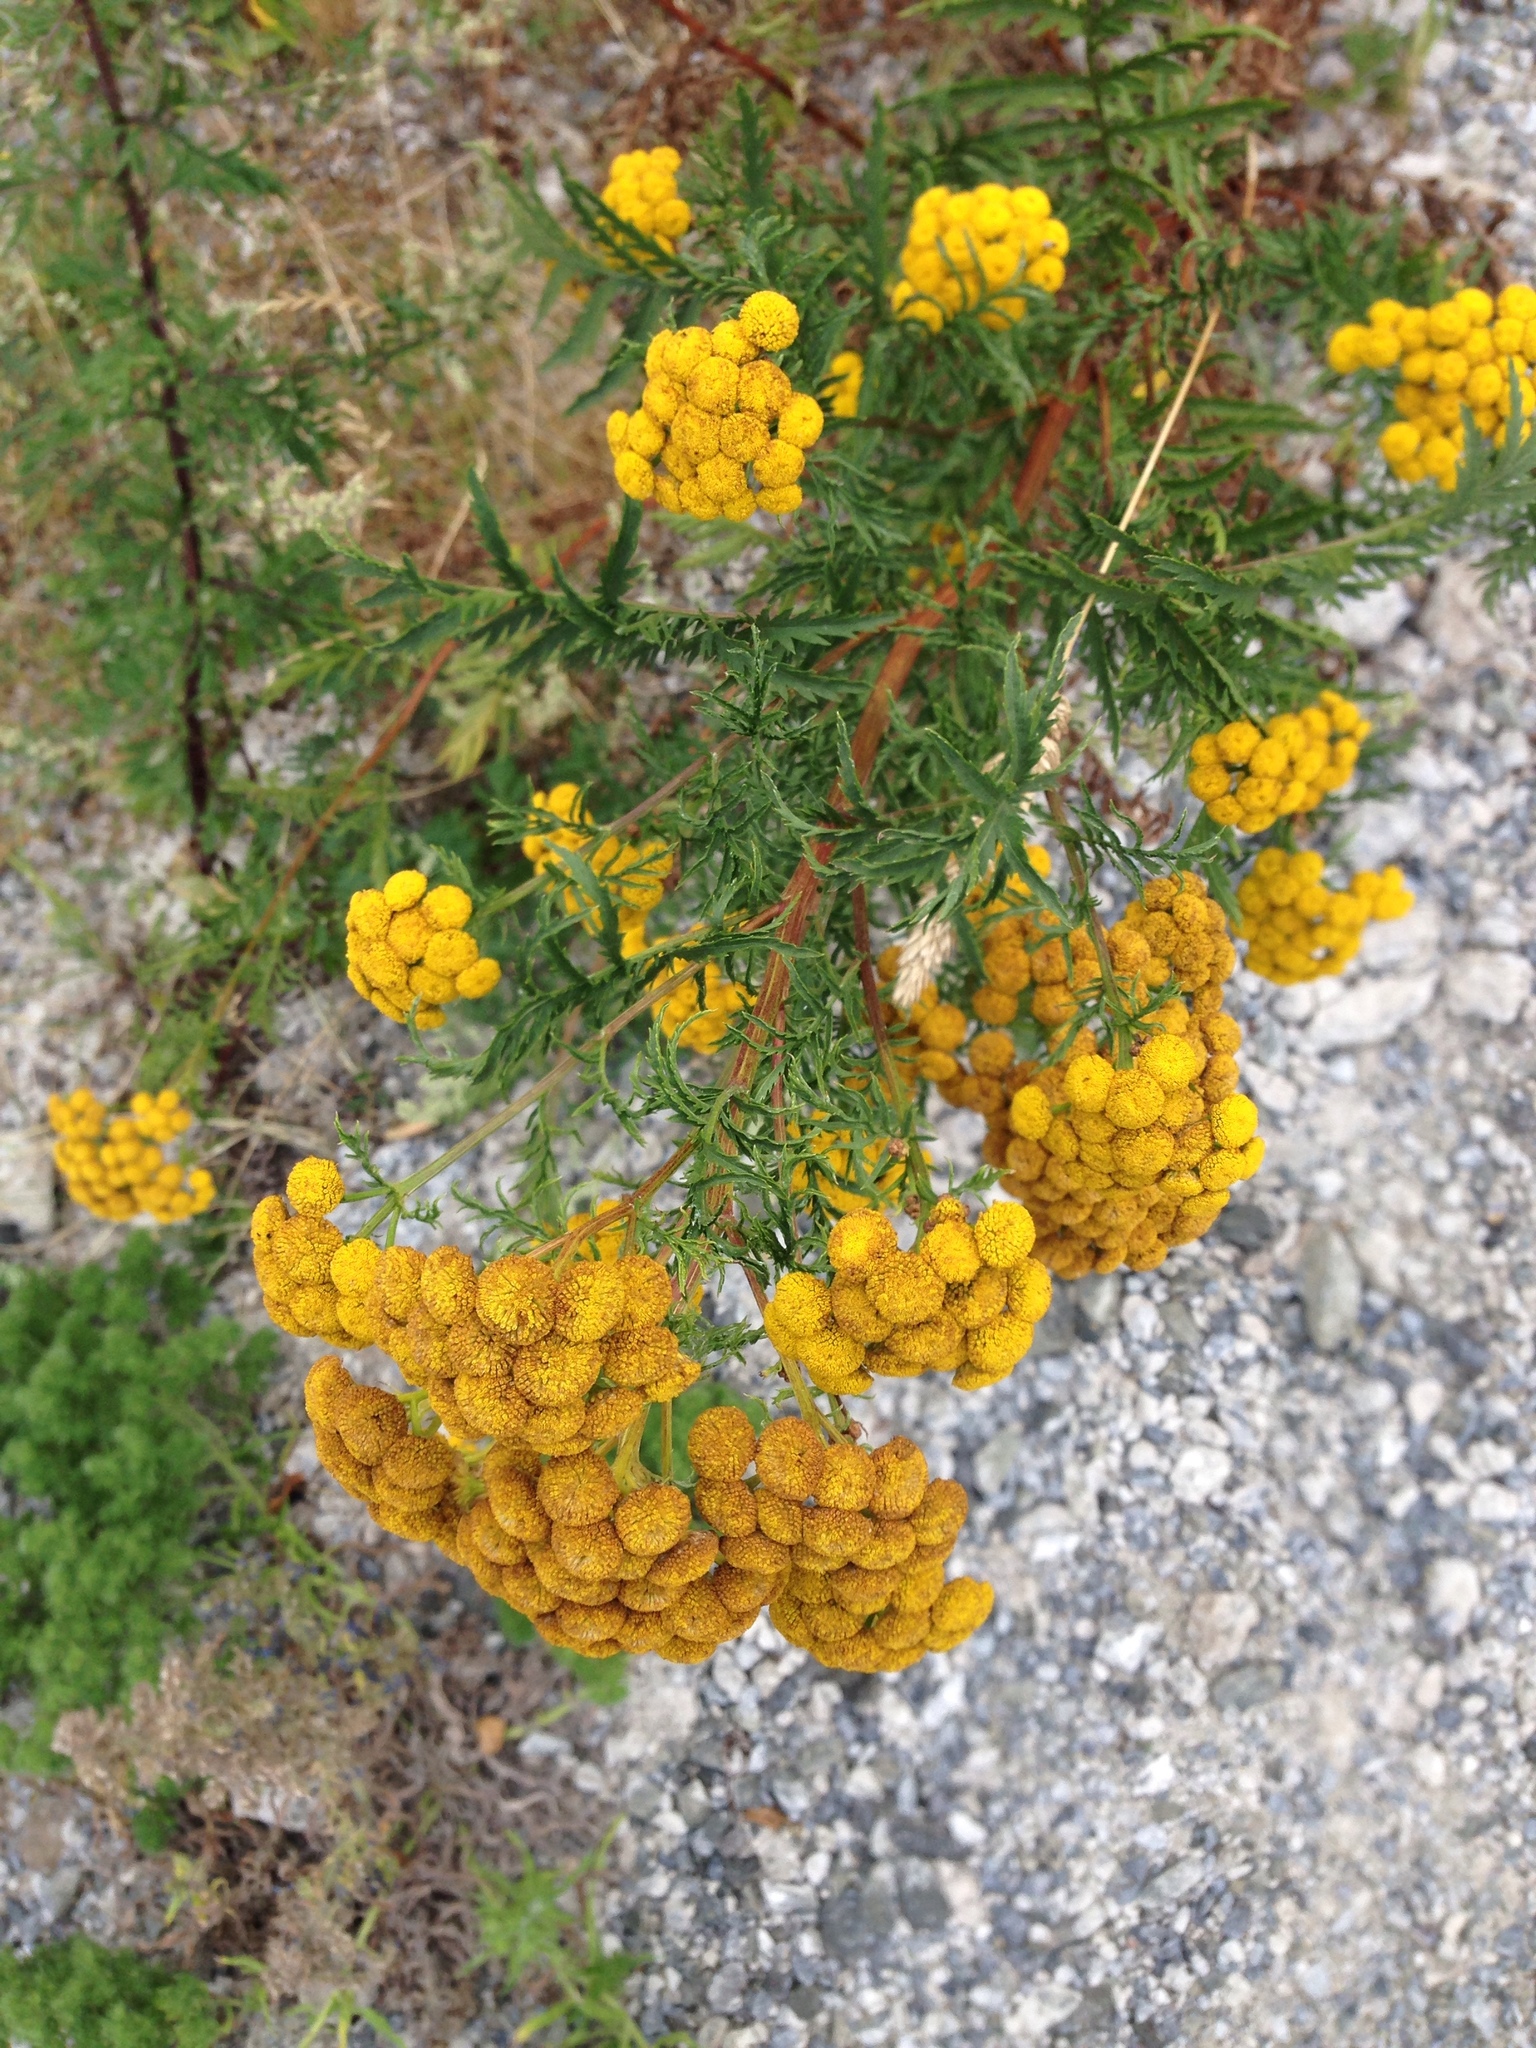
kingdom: Plantae
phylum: Tracheophyta
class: Magnoliopsida
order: Asterales
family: Asteraceae
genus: Tanacetum
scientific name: Tanacetum vulgare
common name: Common tansy
